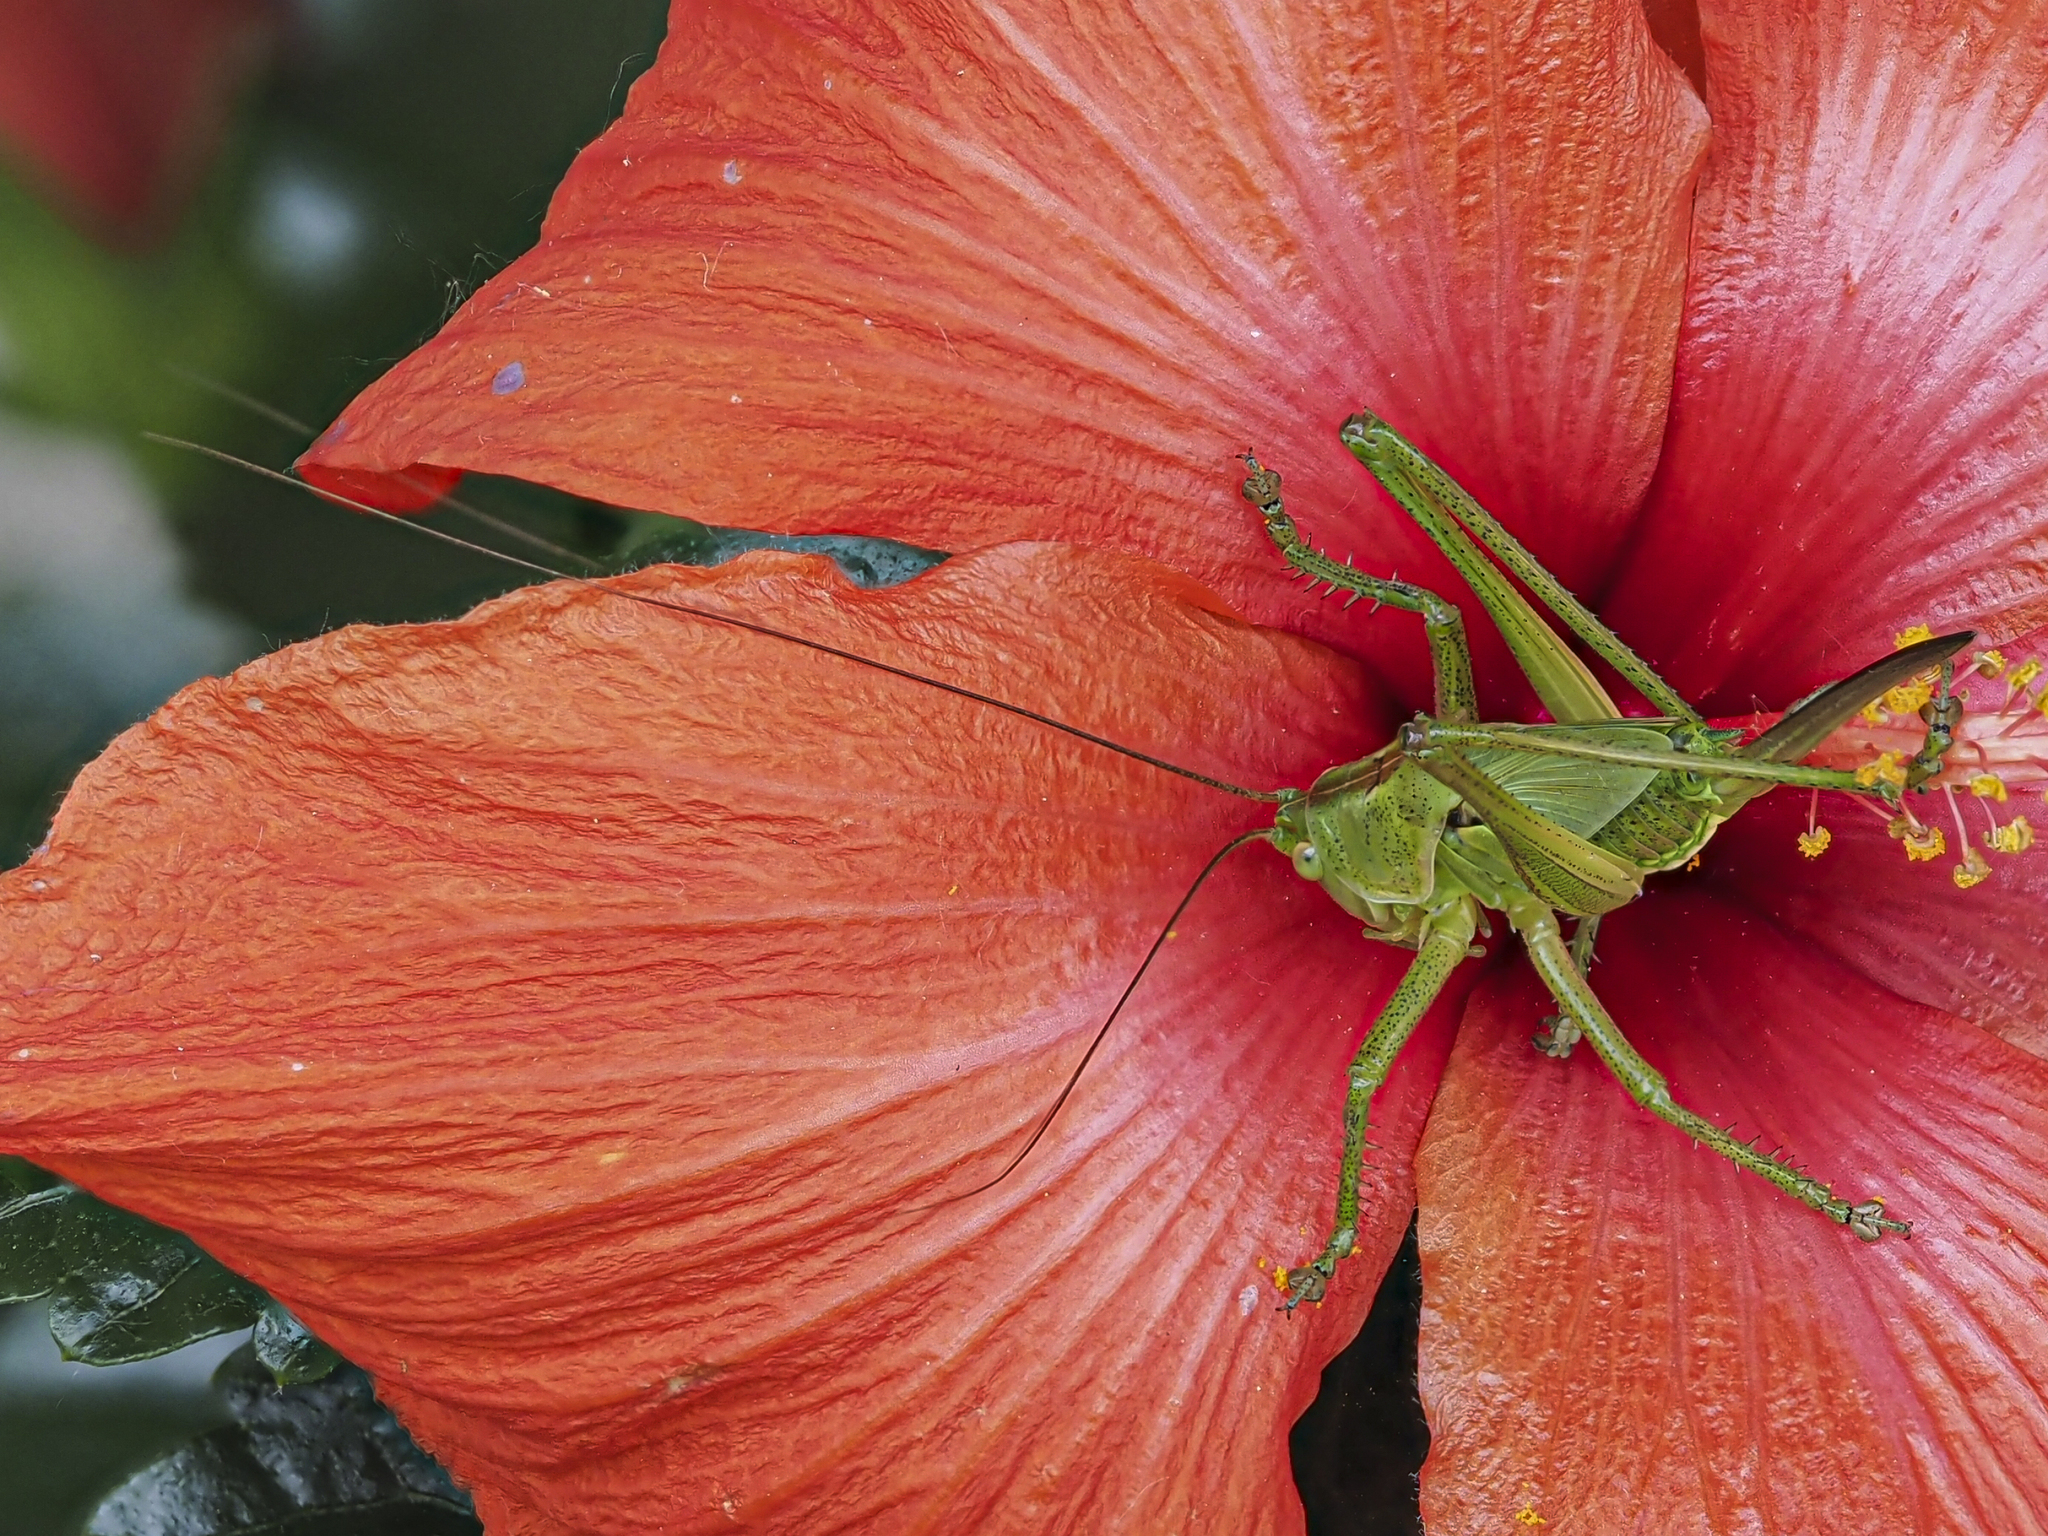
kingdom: Animalia
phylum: Arthropoda
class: Insecta
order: Orthoptera
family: Tettigoniidae
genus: Tettigonia
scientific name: Tettigonia viridissima
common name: Great green bush-cricket
